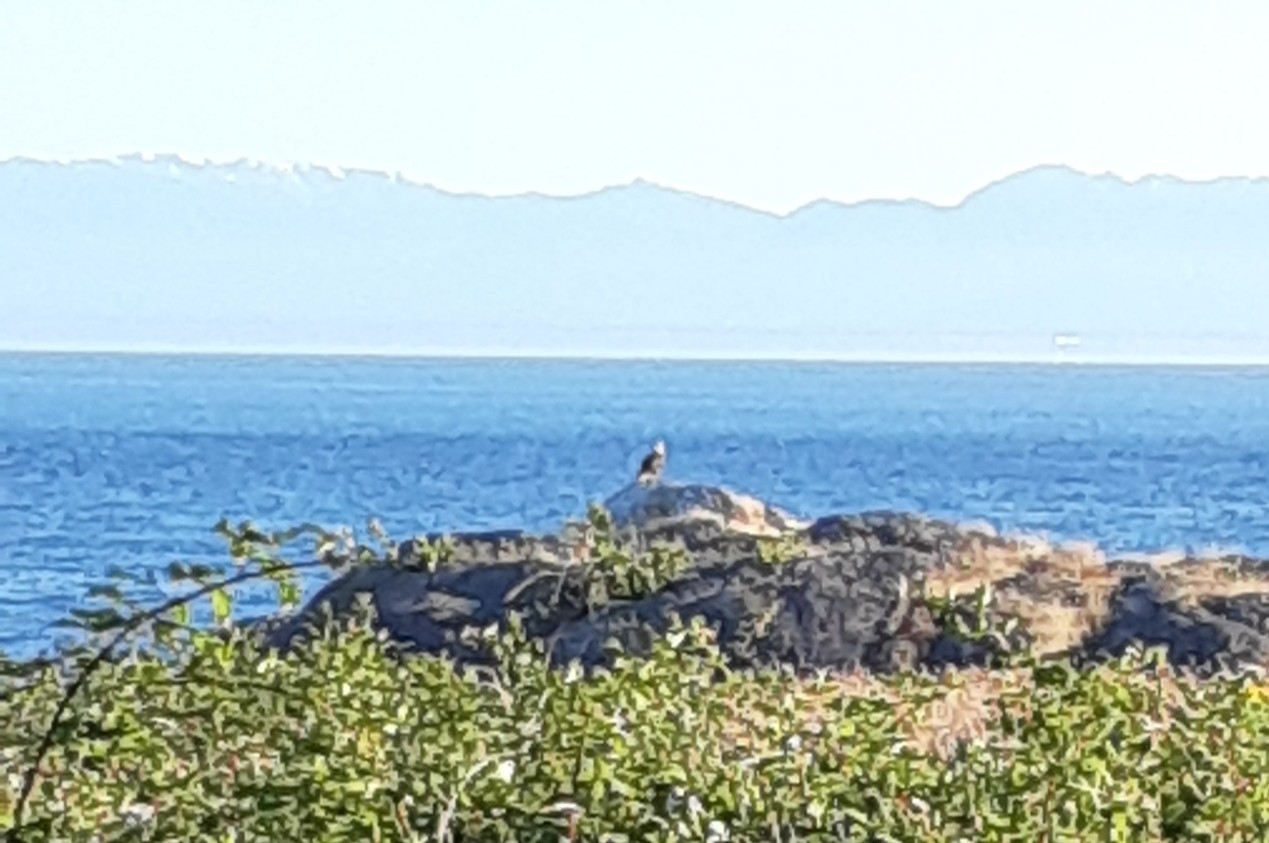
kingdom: Animalia
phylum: Chordata
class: Aves
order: Accipitriformes
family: Accipitridae
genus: Haliaeetus
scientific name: Haliaeetus leucocephalus
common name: Bald eagle
